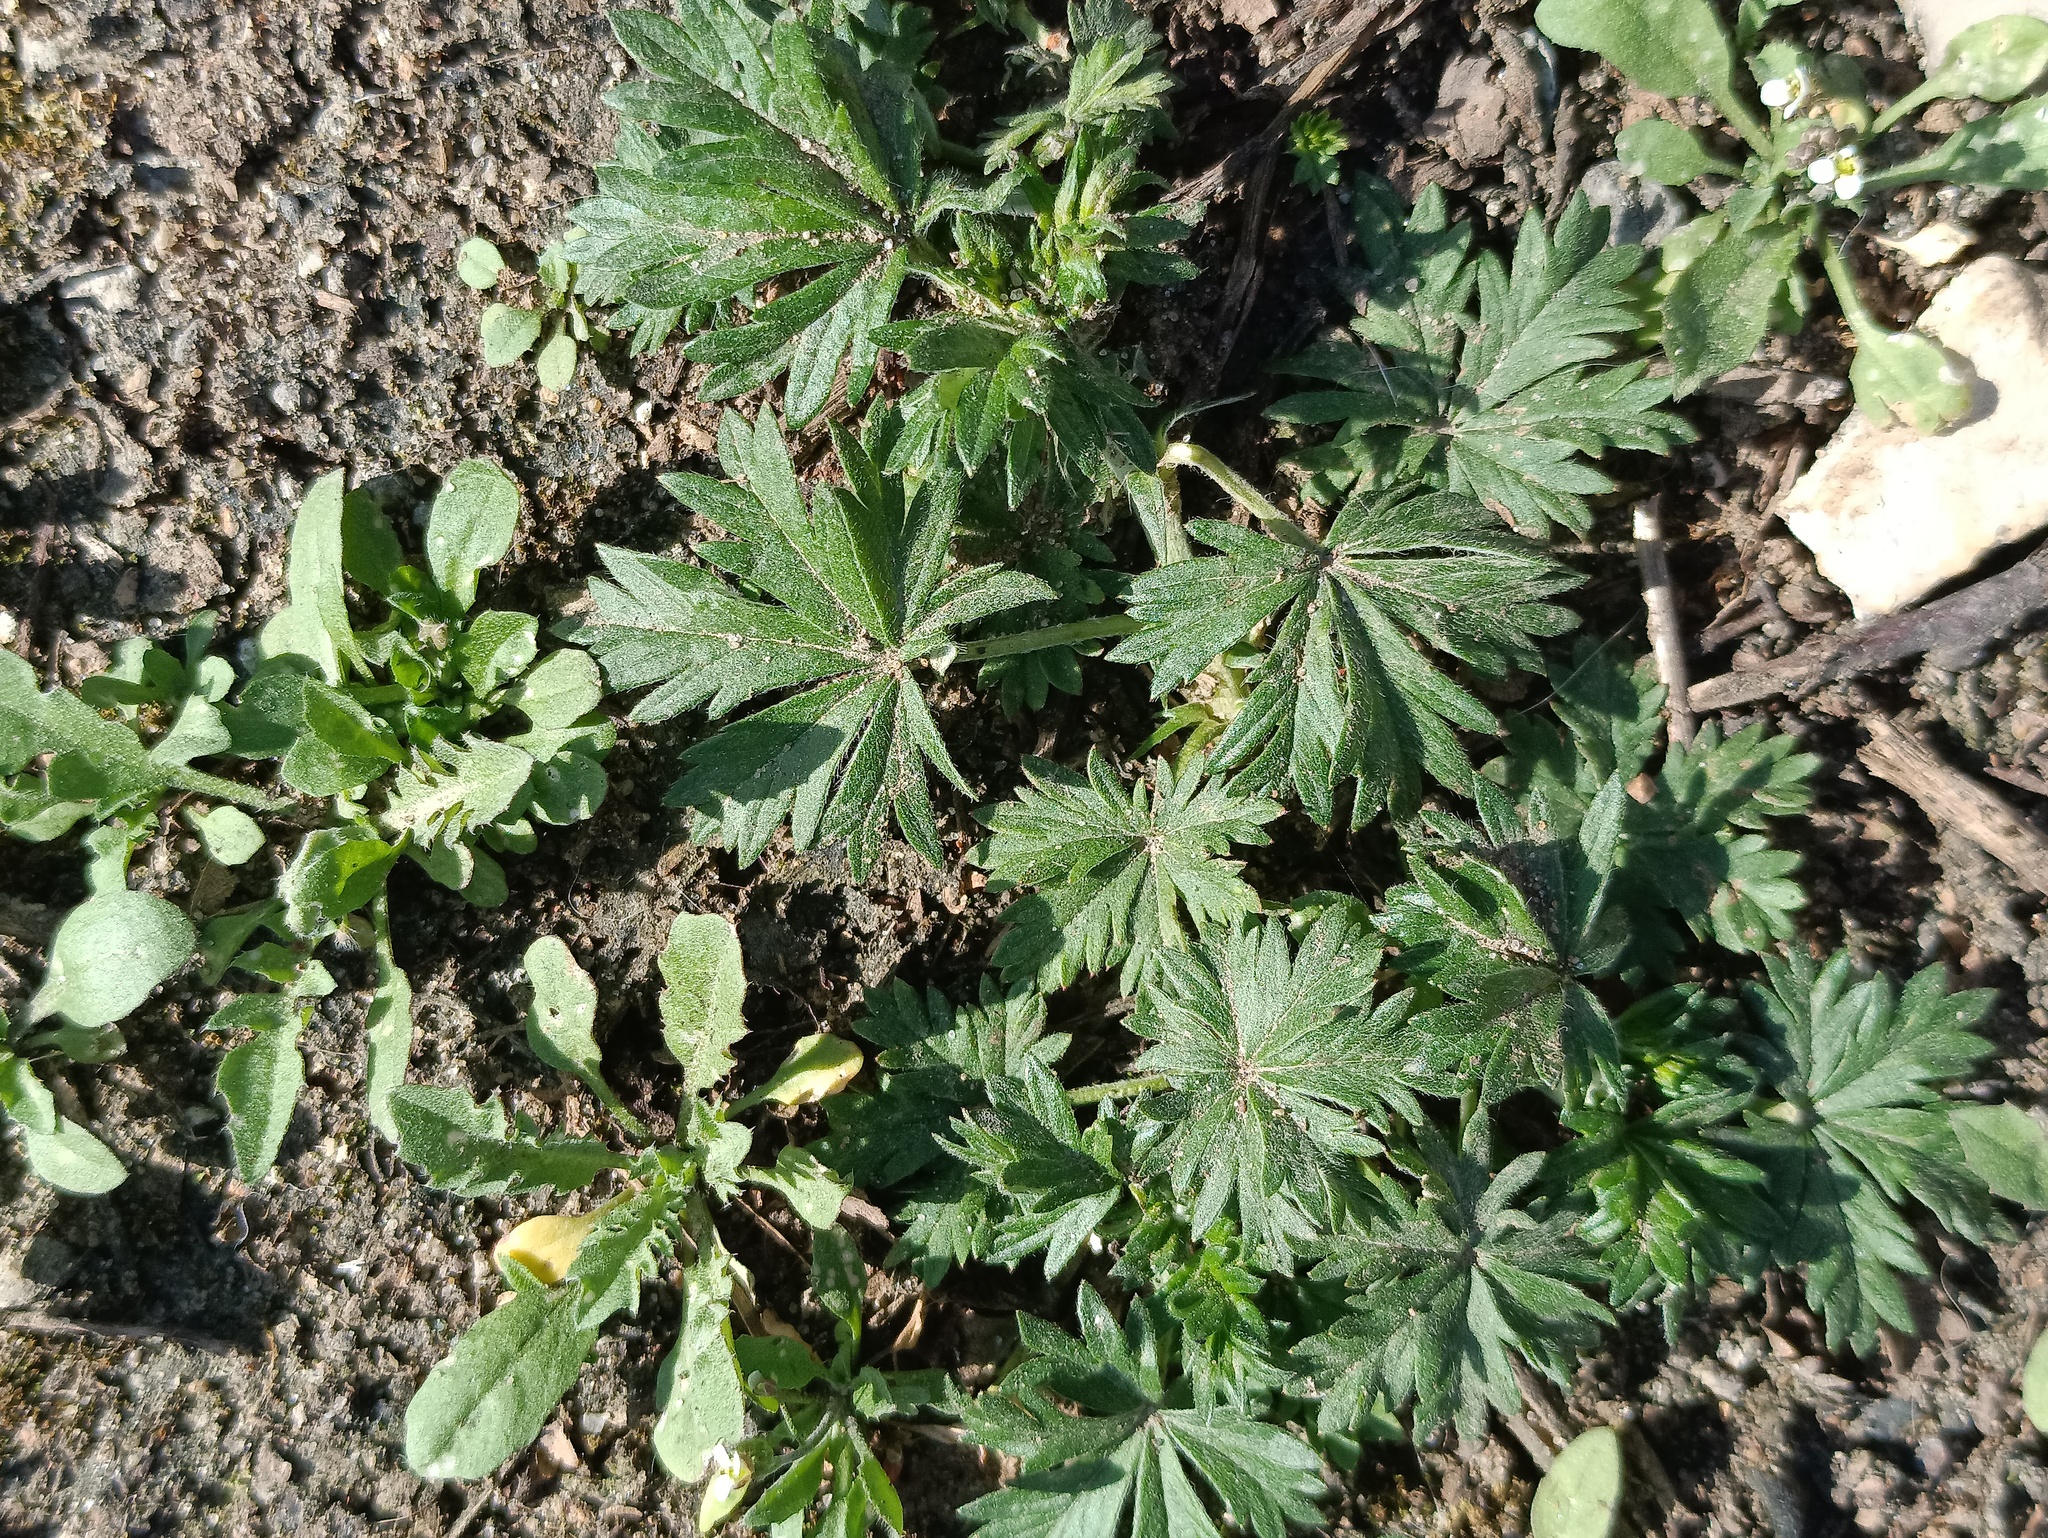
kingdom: Plantae
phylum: Tracheophyta
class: Magnoliopsida
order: Rosales
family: Rosaceae
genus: Potentilla
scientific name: Potentilla argentea
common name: Hoary cinquefoil
